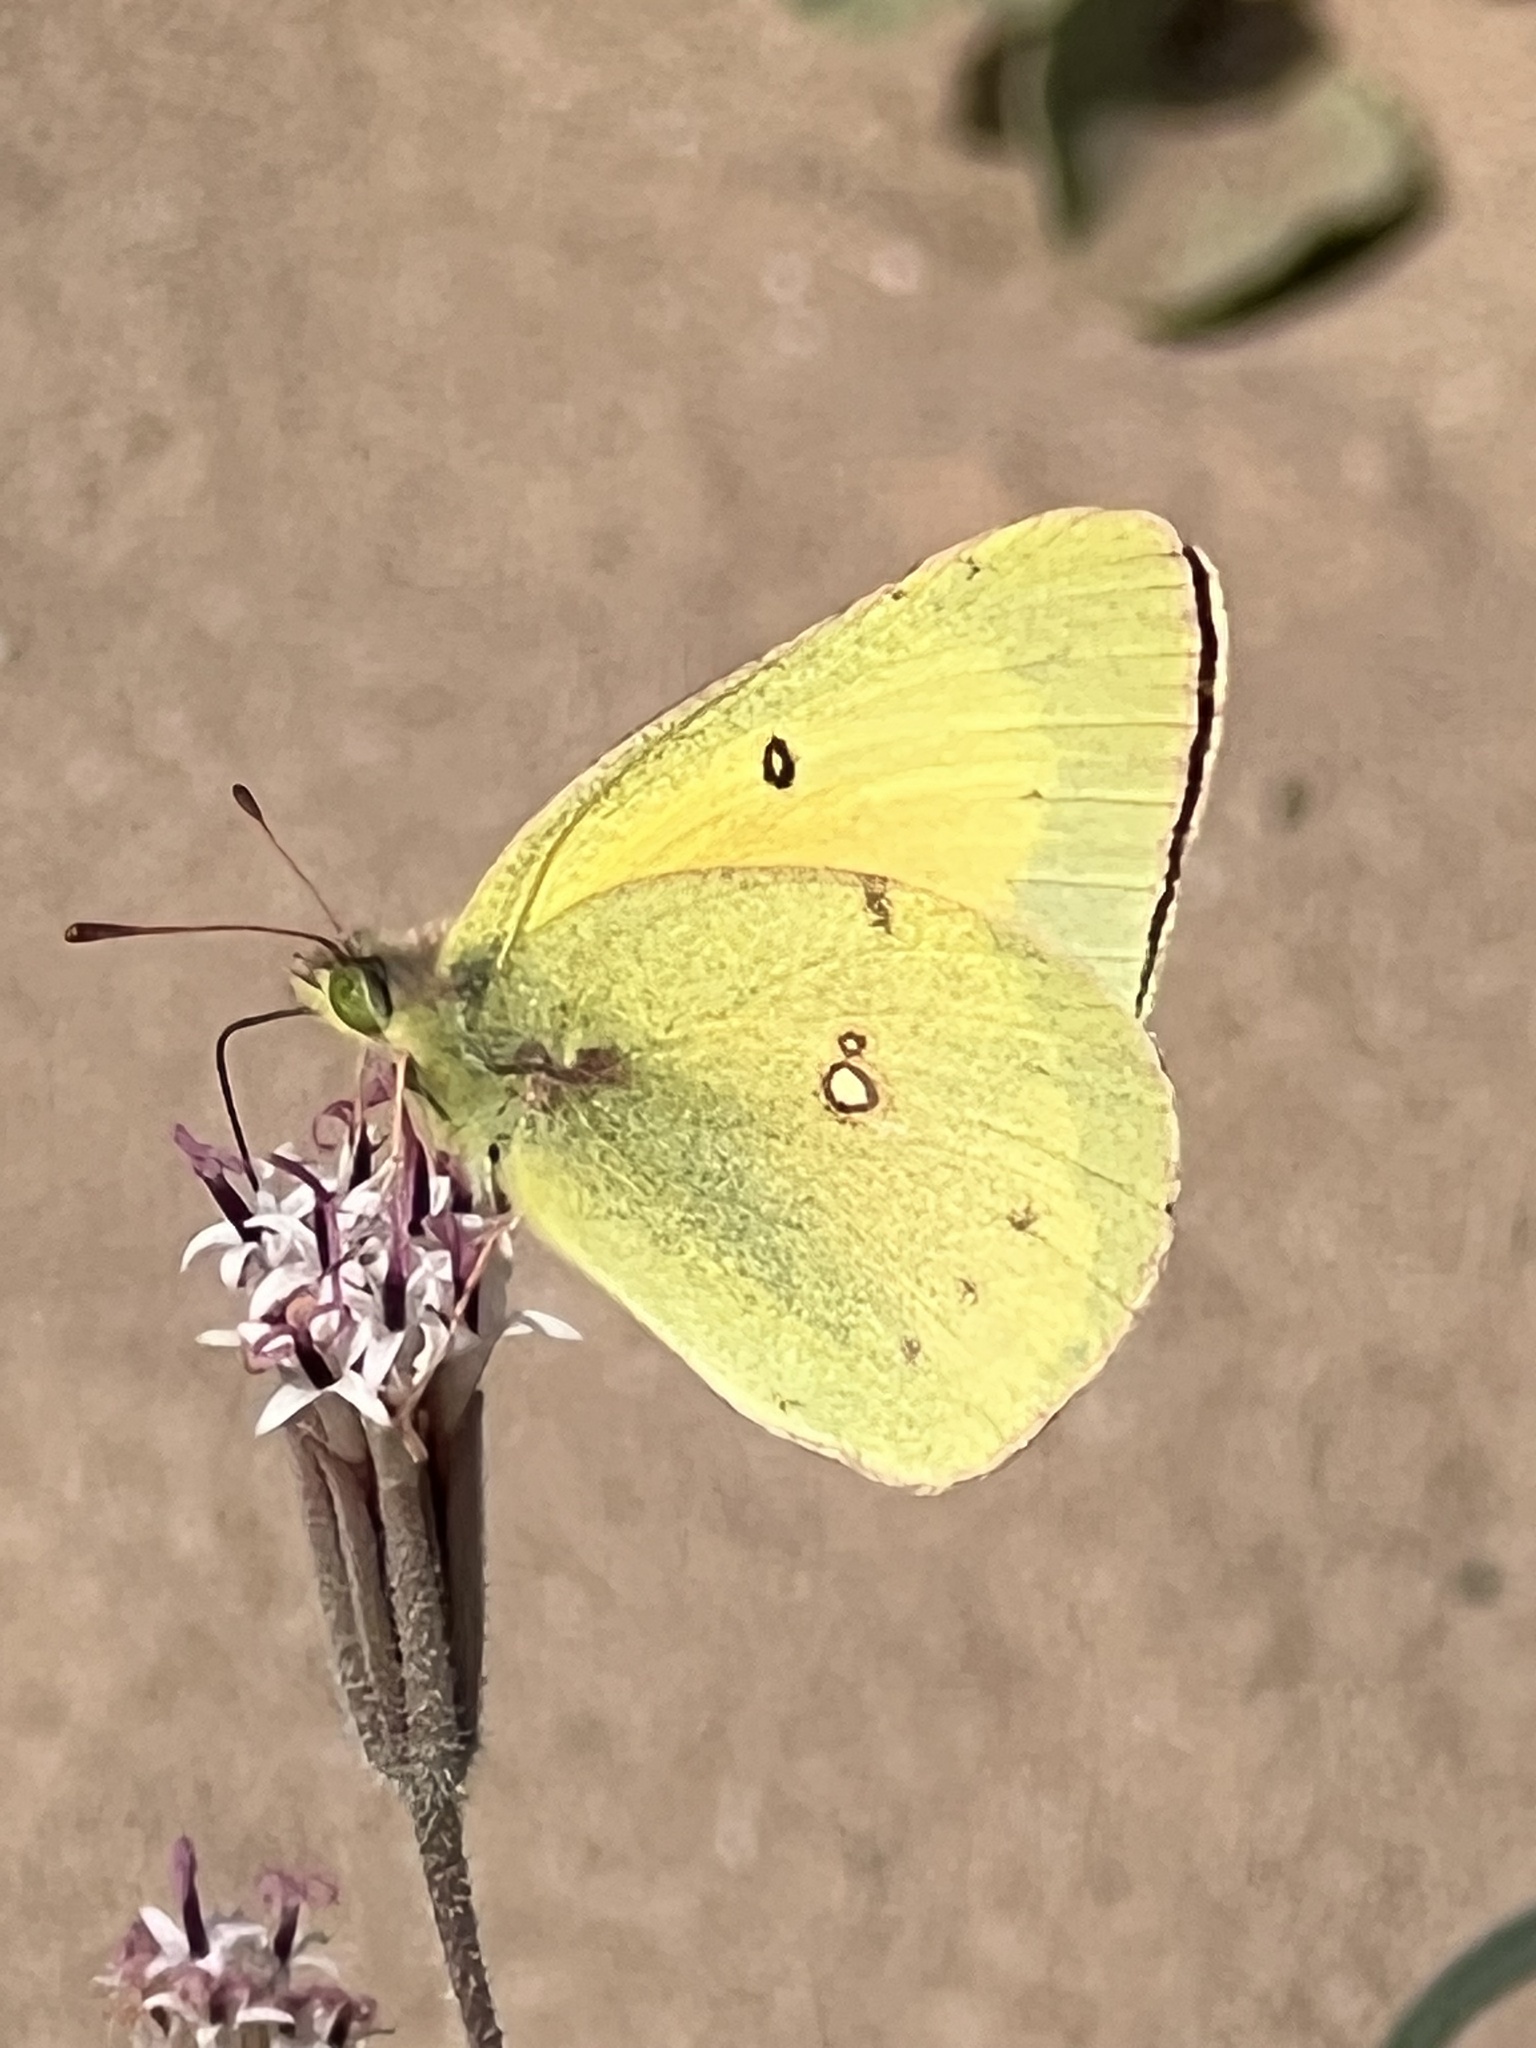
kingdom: Animalia
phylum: Arthropoda
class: Insecta
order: Lepidoptera
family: Pieridae
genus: Colias
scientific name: Colias eurytheme
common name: Alfalfa butterfly
